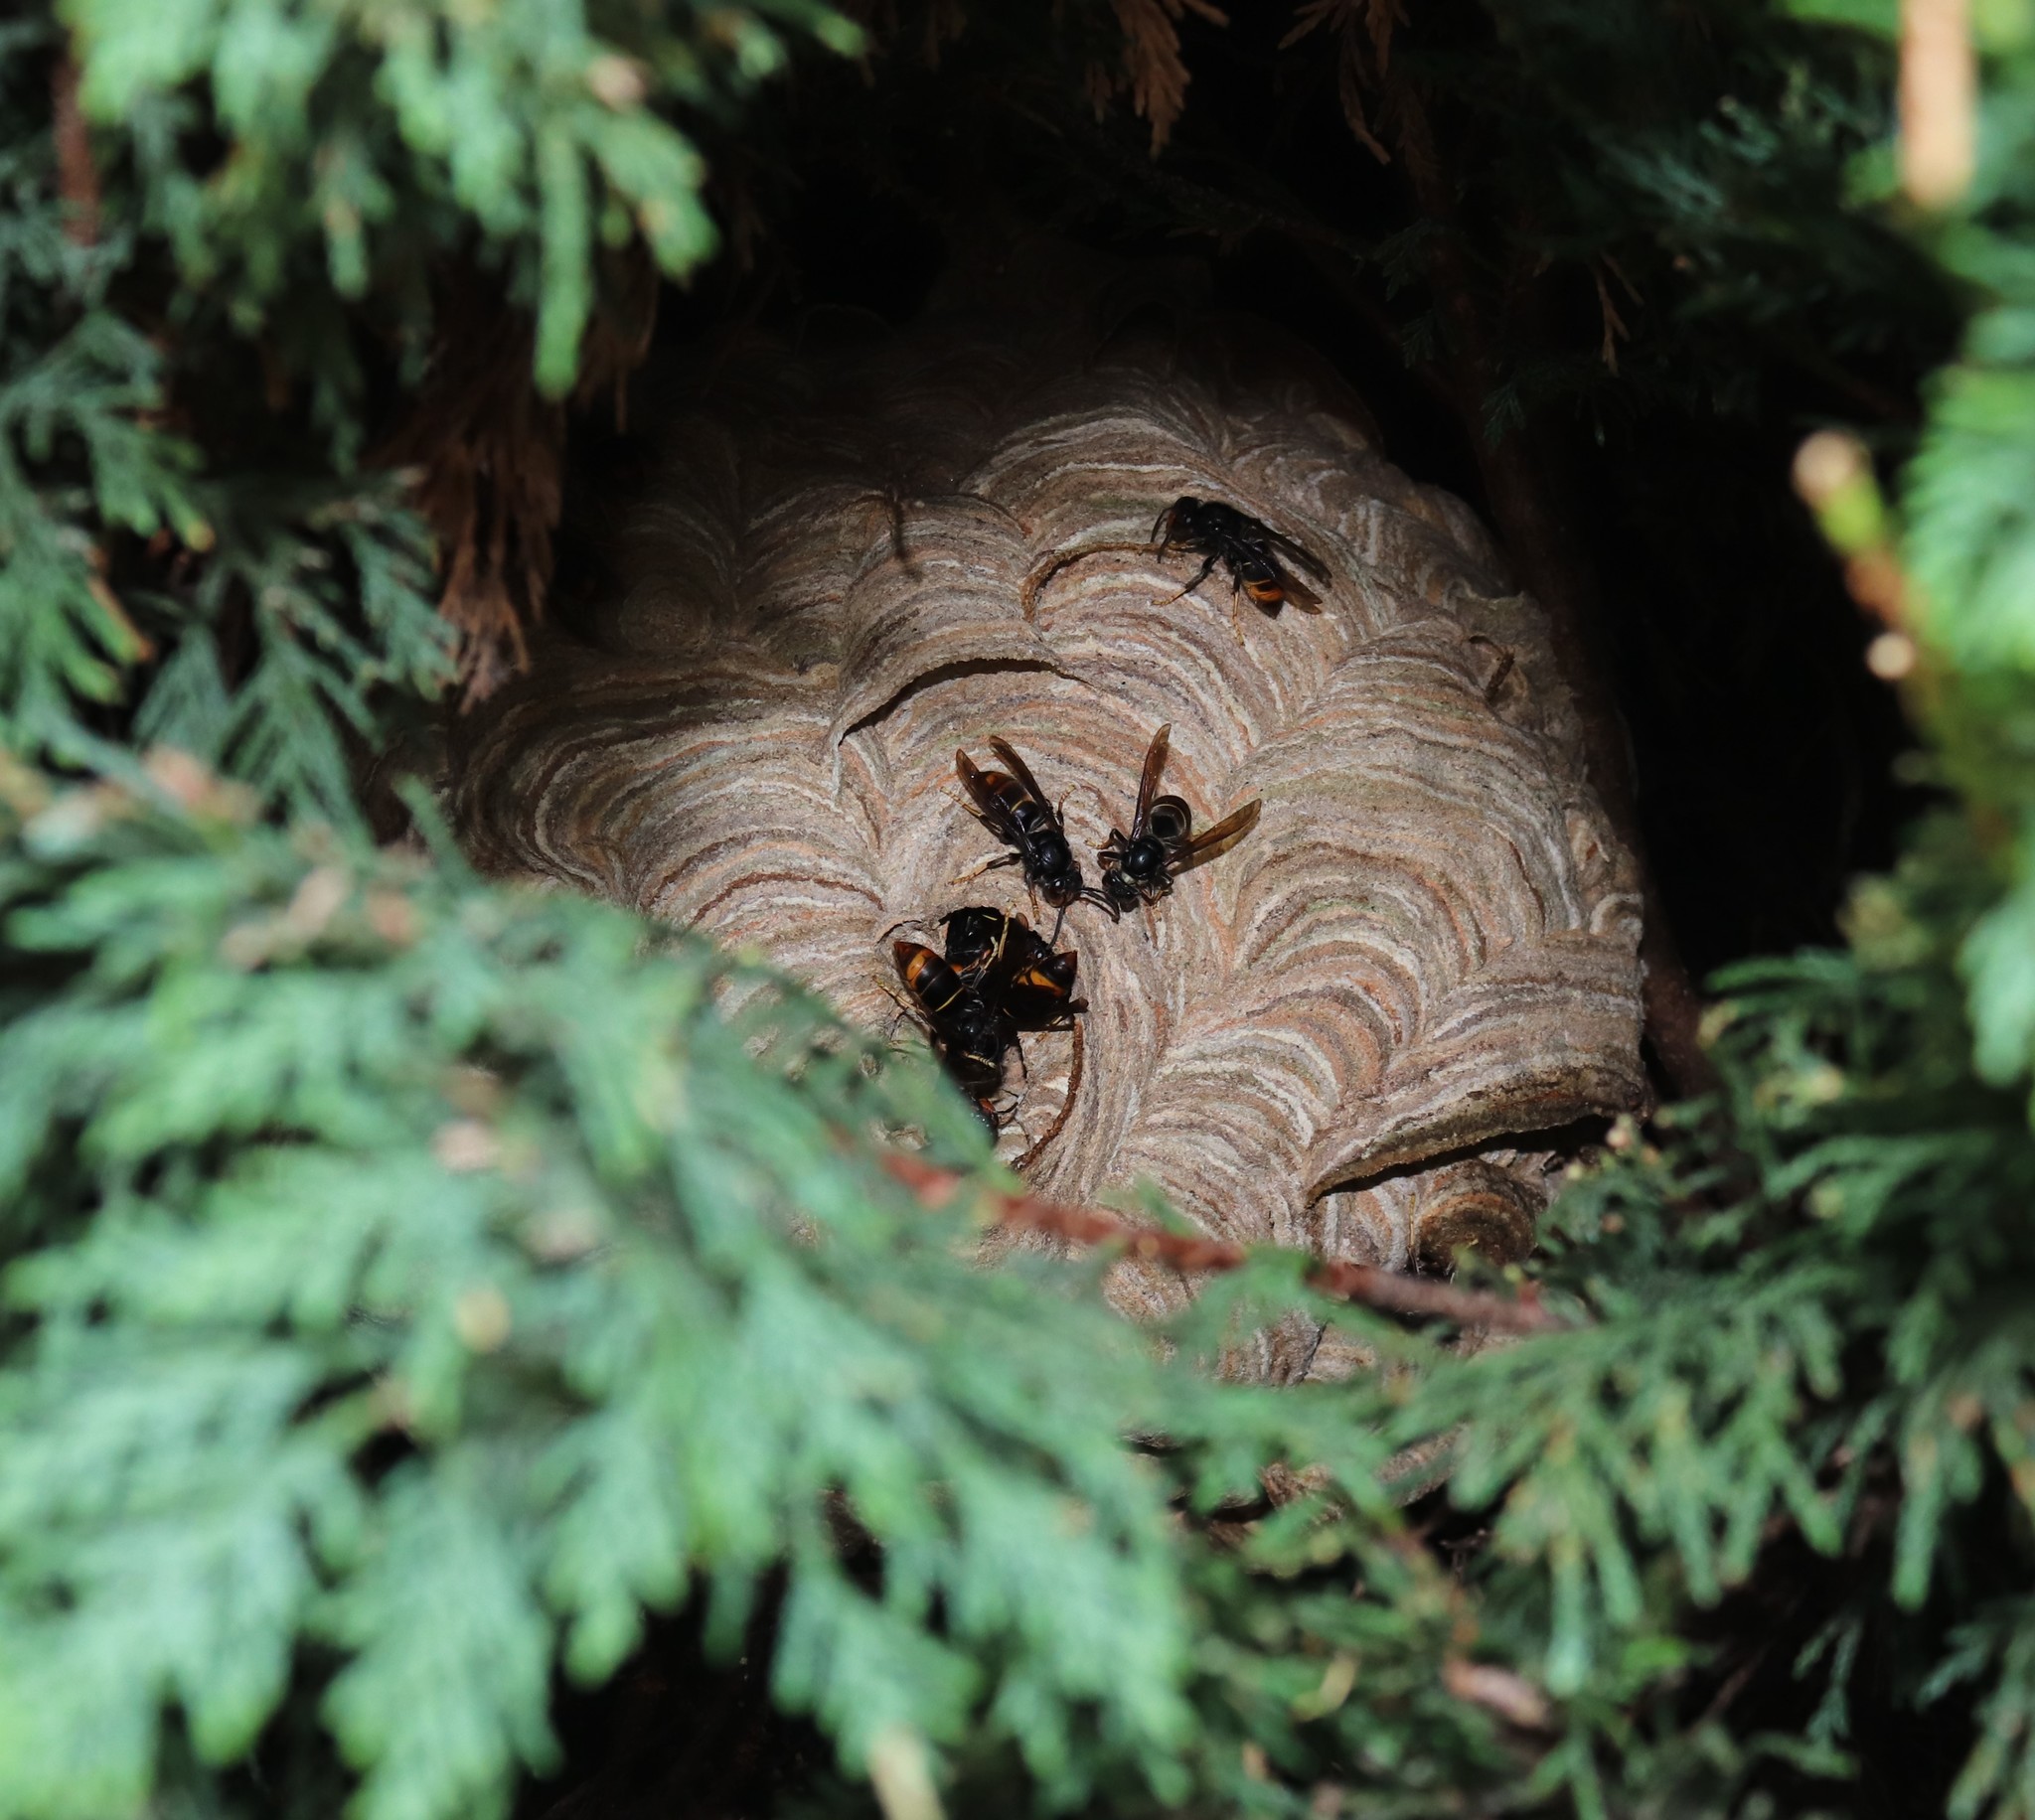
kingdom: Animalia
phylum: Arthropoda
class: Insecta
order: Hymenoptera
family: Vespidae
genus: Vespa
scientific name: Vespa velutina
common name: Asian hornet
